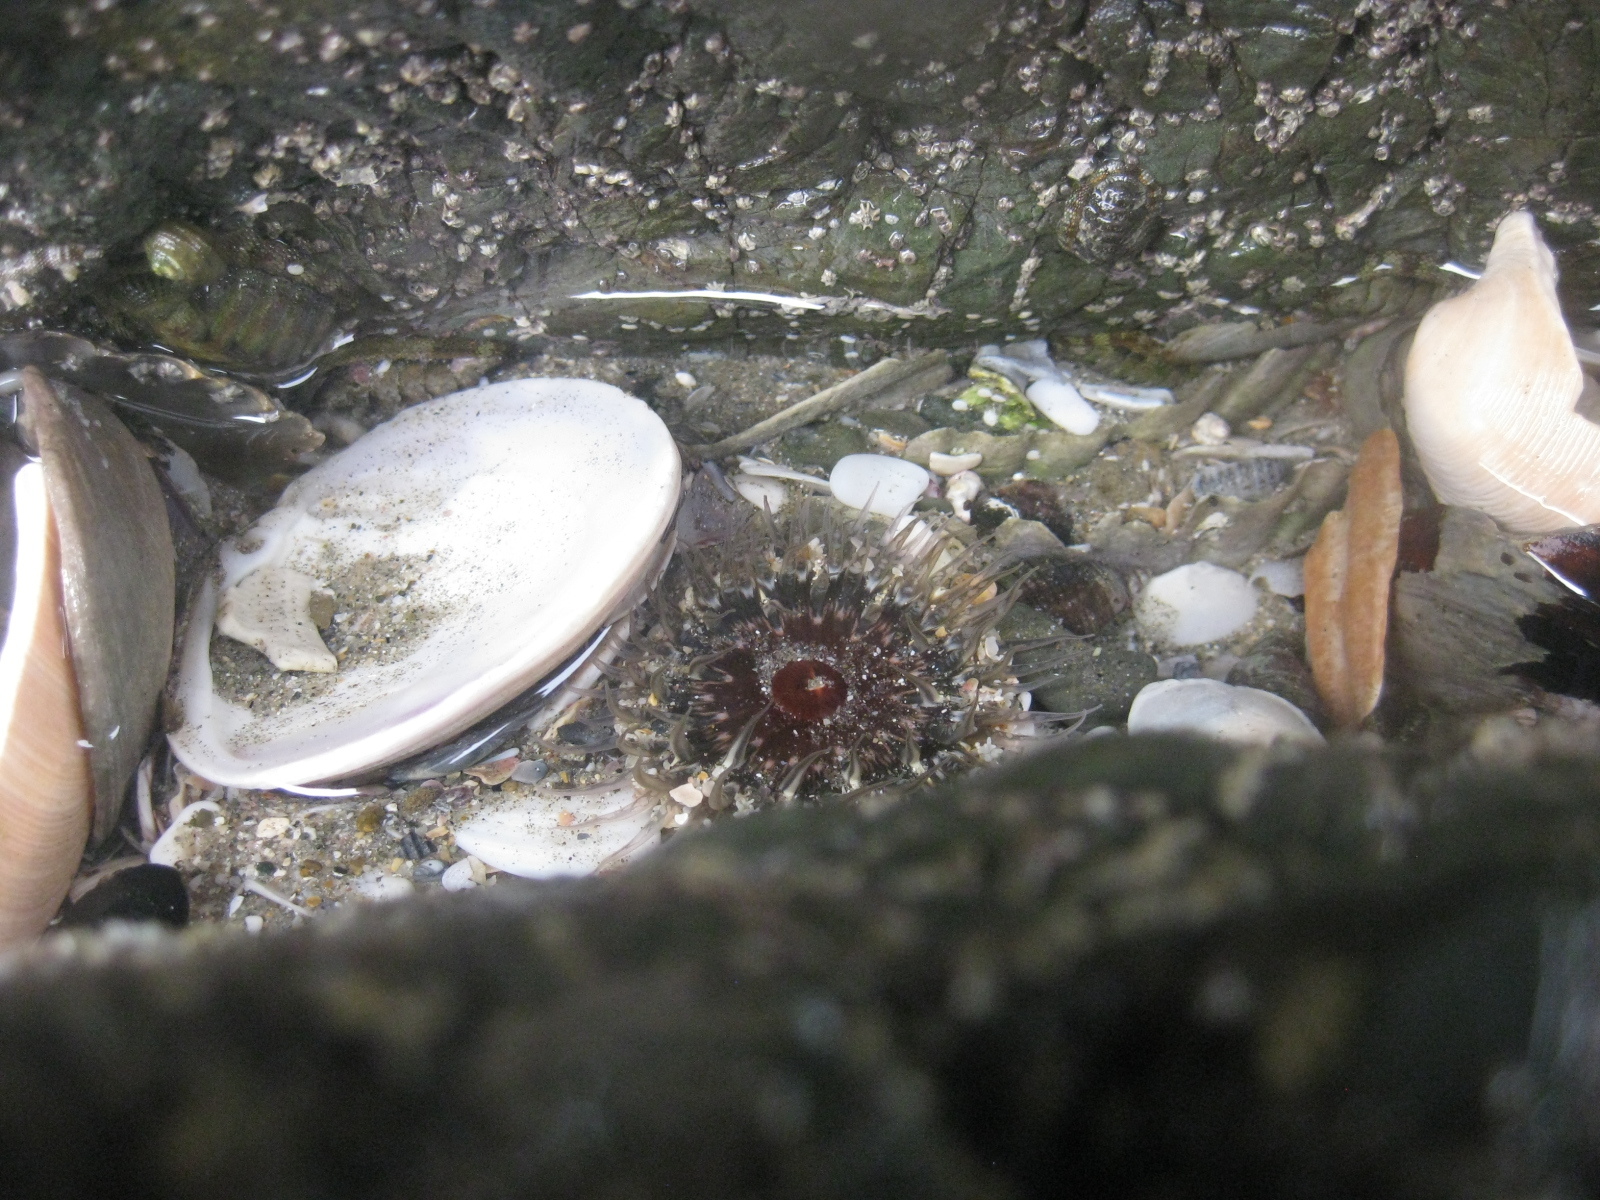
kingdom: Animalia
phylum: Cnidaria
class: Anthozoa
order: Actiniaria
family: Actiniidae
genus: Oulactis
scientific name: Oulactis muscosa
